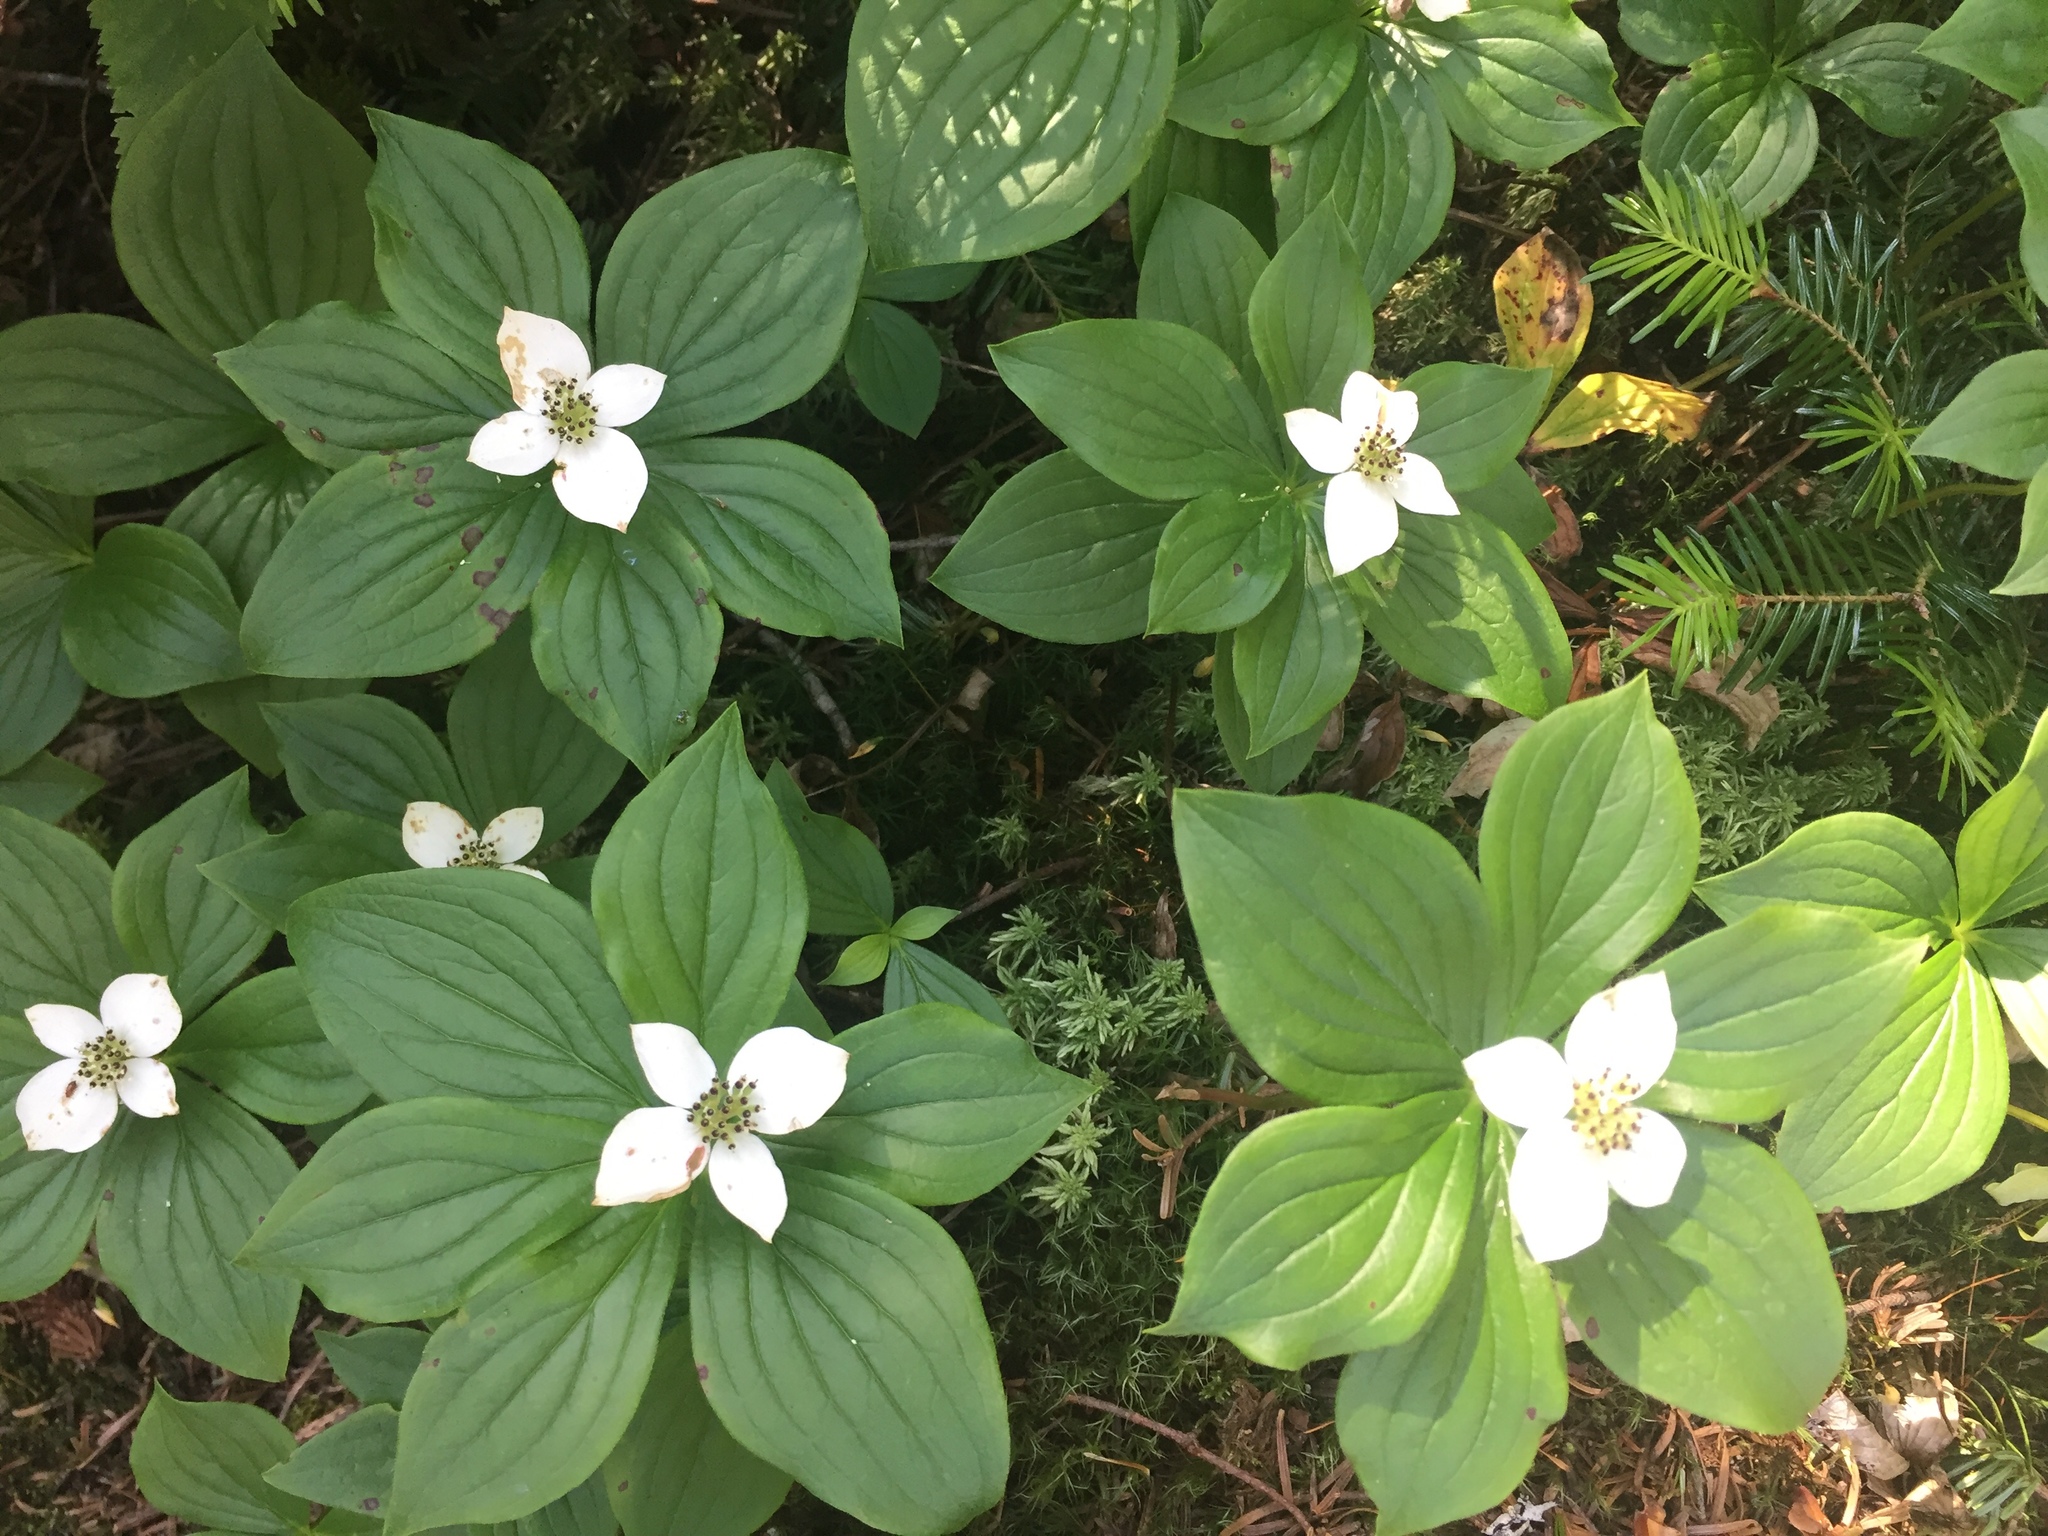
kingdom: Plantae
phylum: Tracheophyta
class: Magnoliopsida
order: Cornales
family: Cornaceae
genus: Cornus
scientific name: Cornus canadensis
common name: Creeping dogwood
